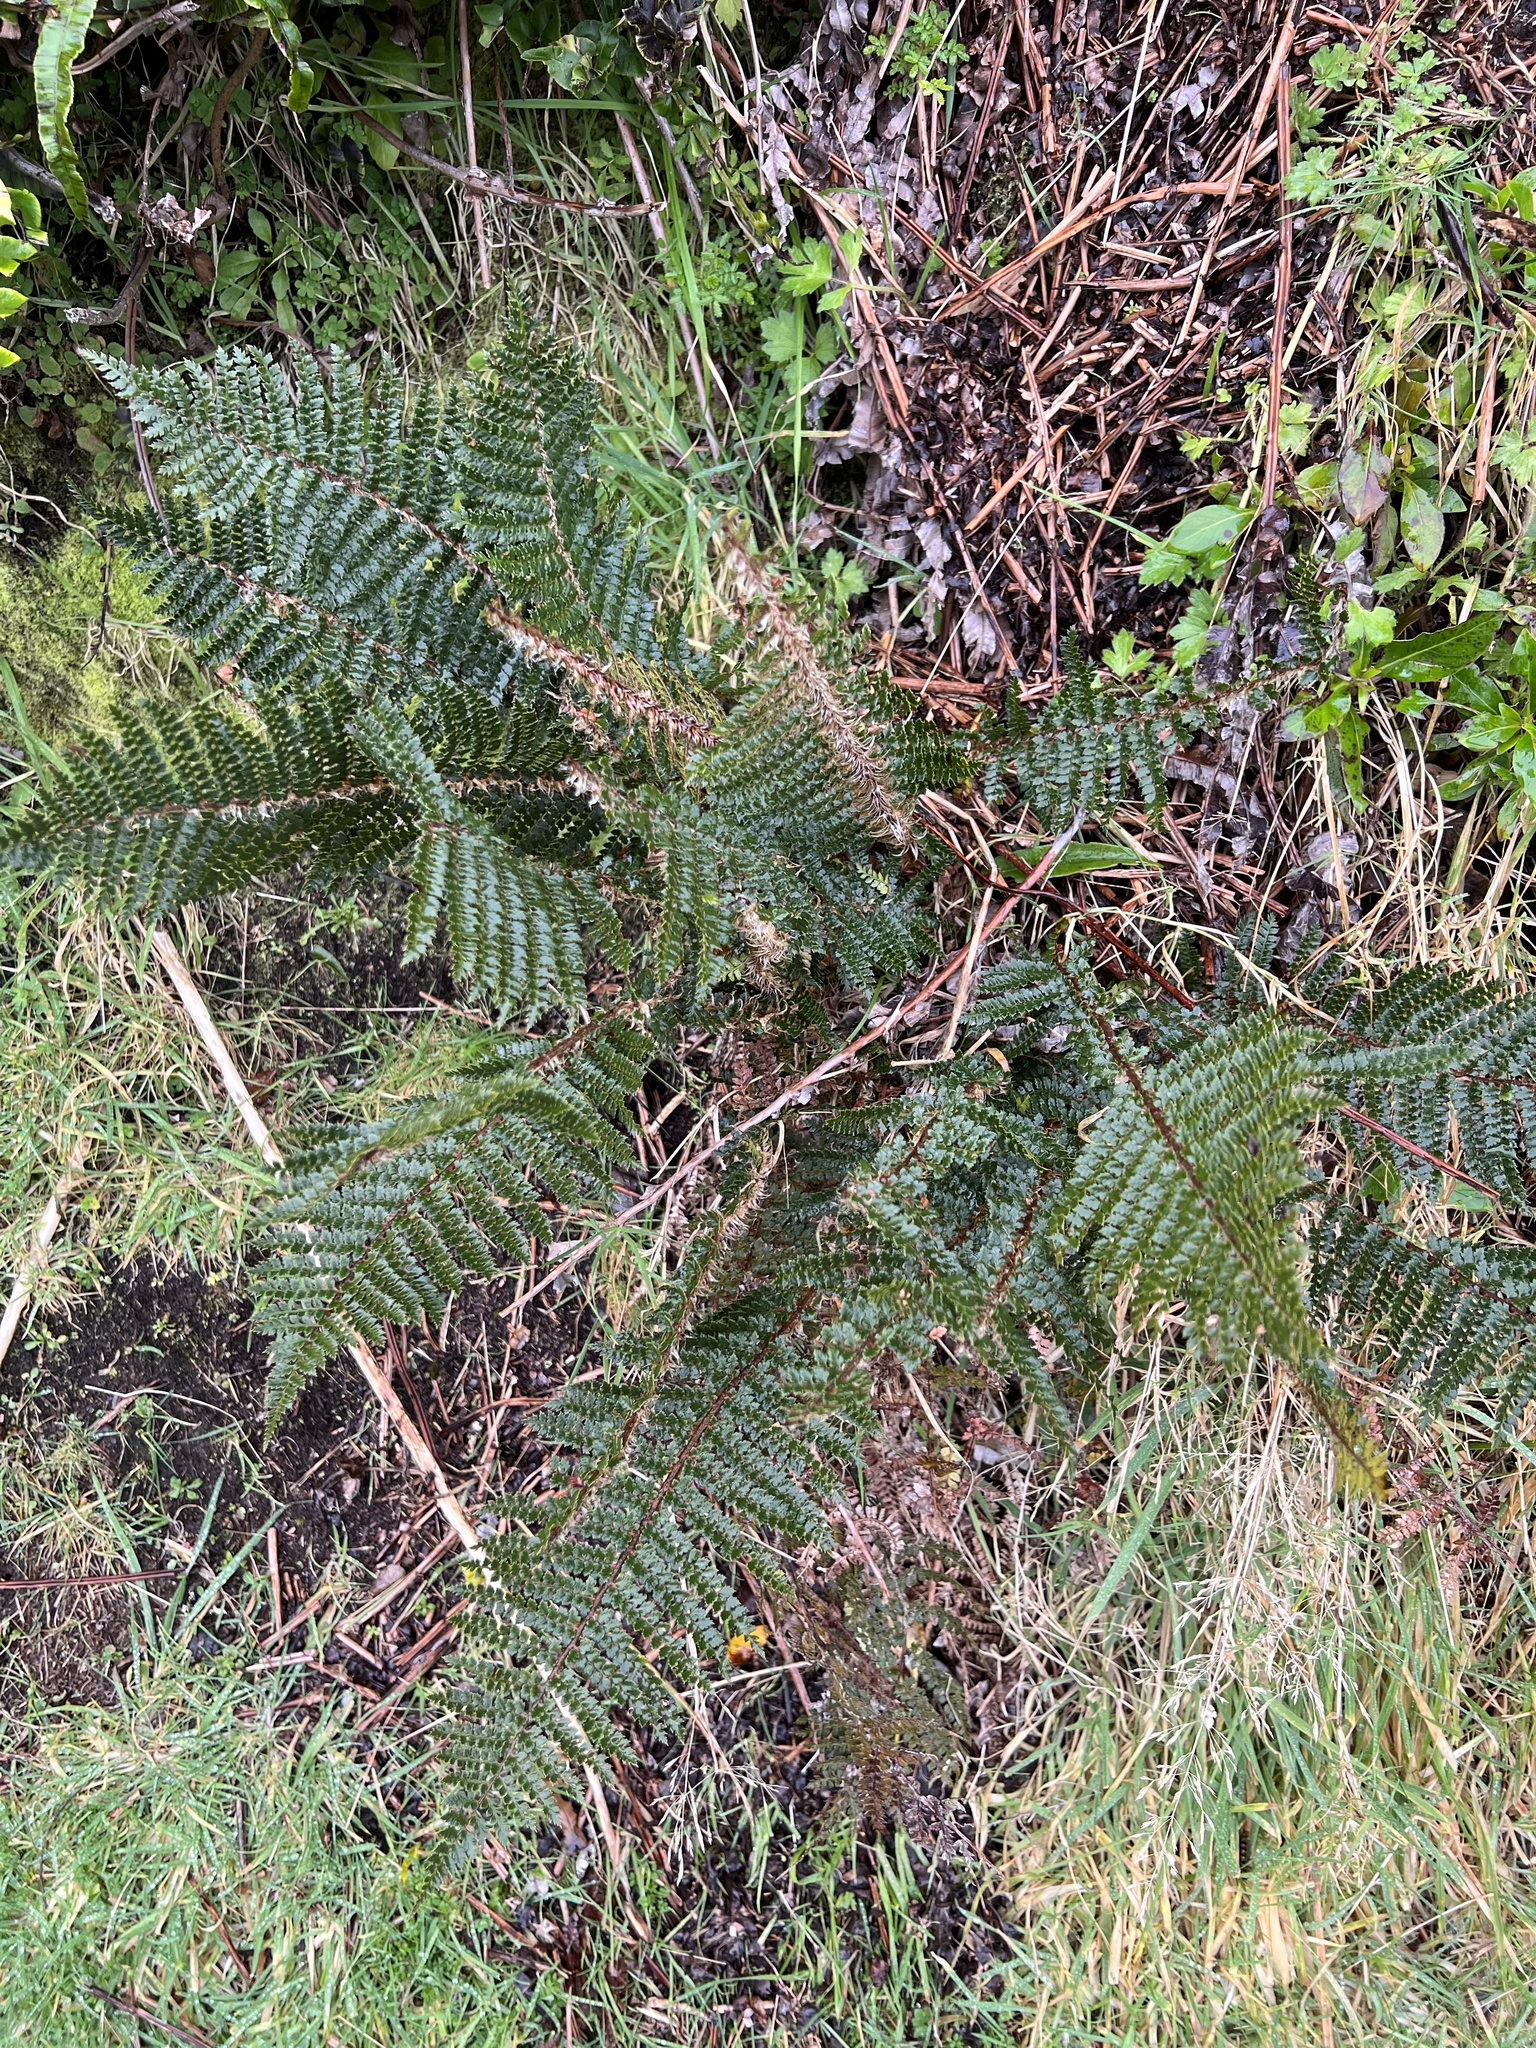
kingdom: Plantae
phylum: Tracheophyta
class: Polypodiopsida
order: Polypodiales
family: Dryopteridaceae
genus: Polystichum
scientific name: Polystichum vestitum
